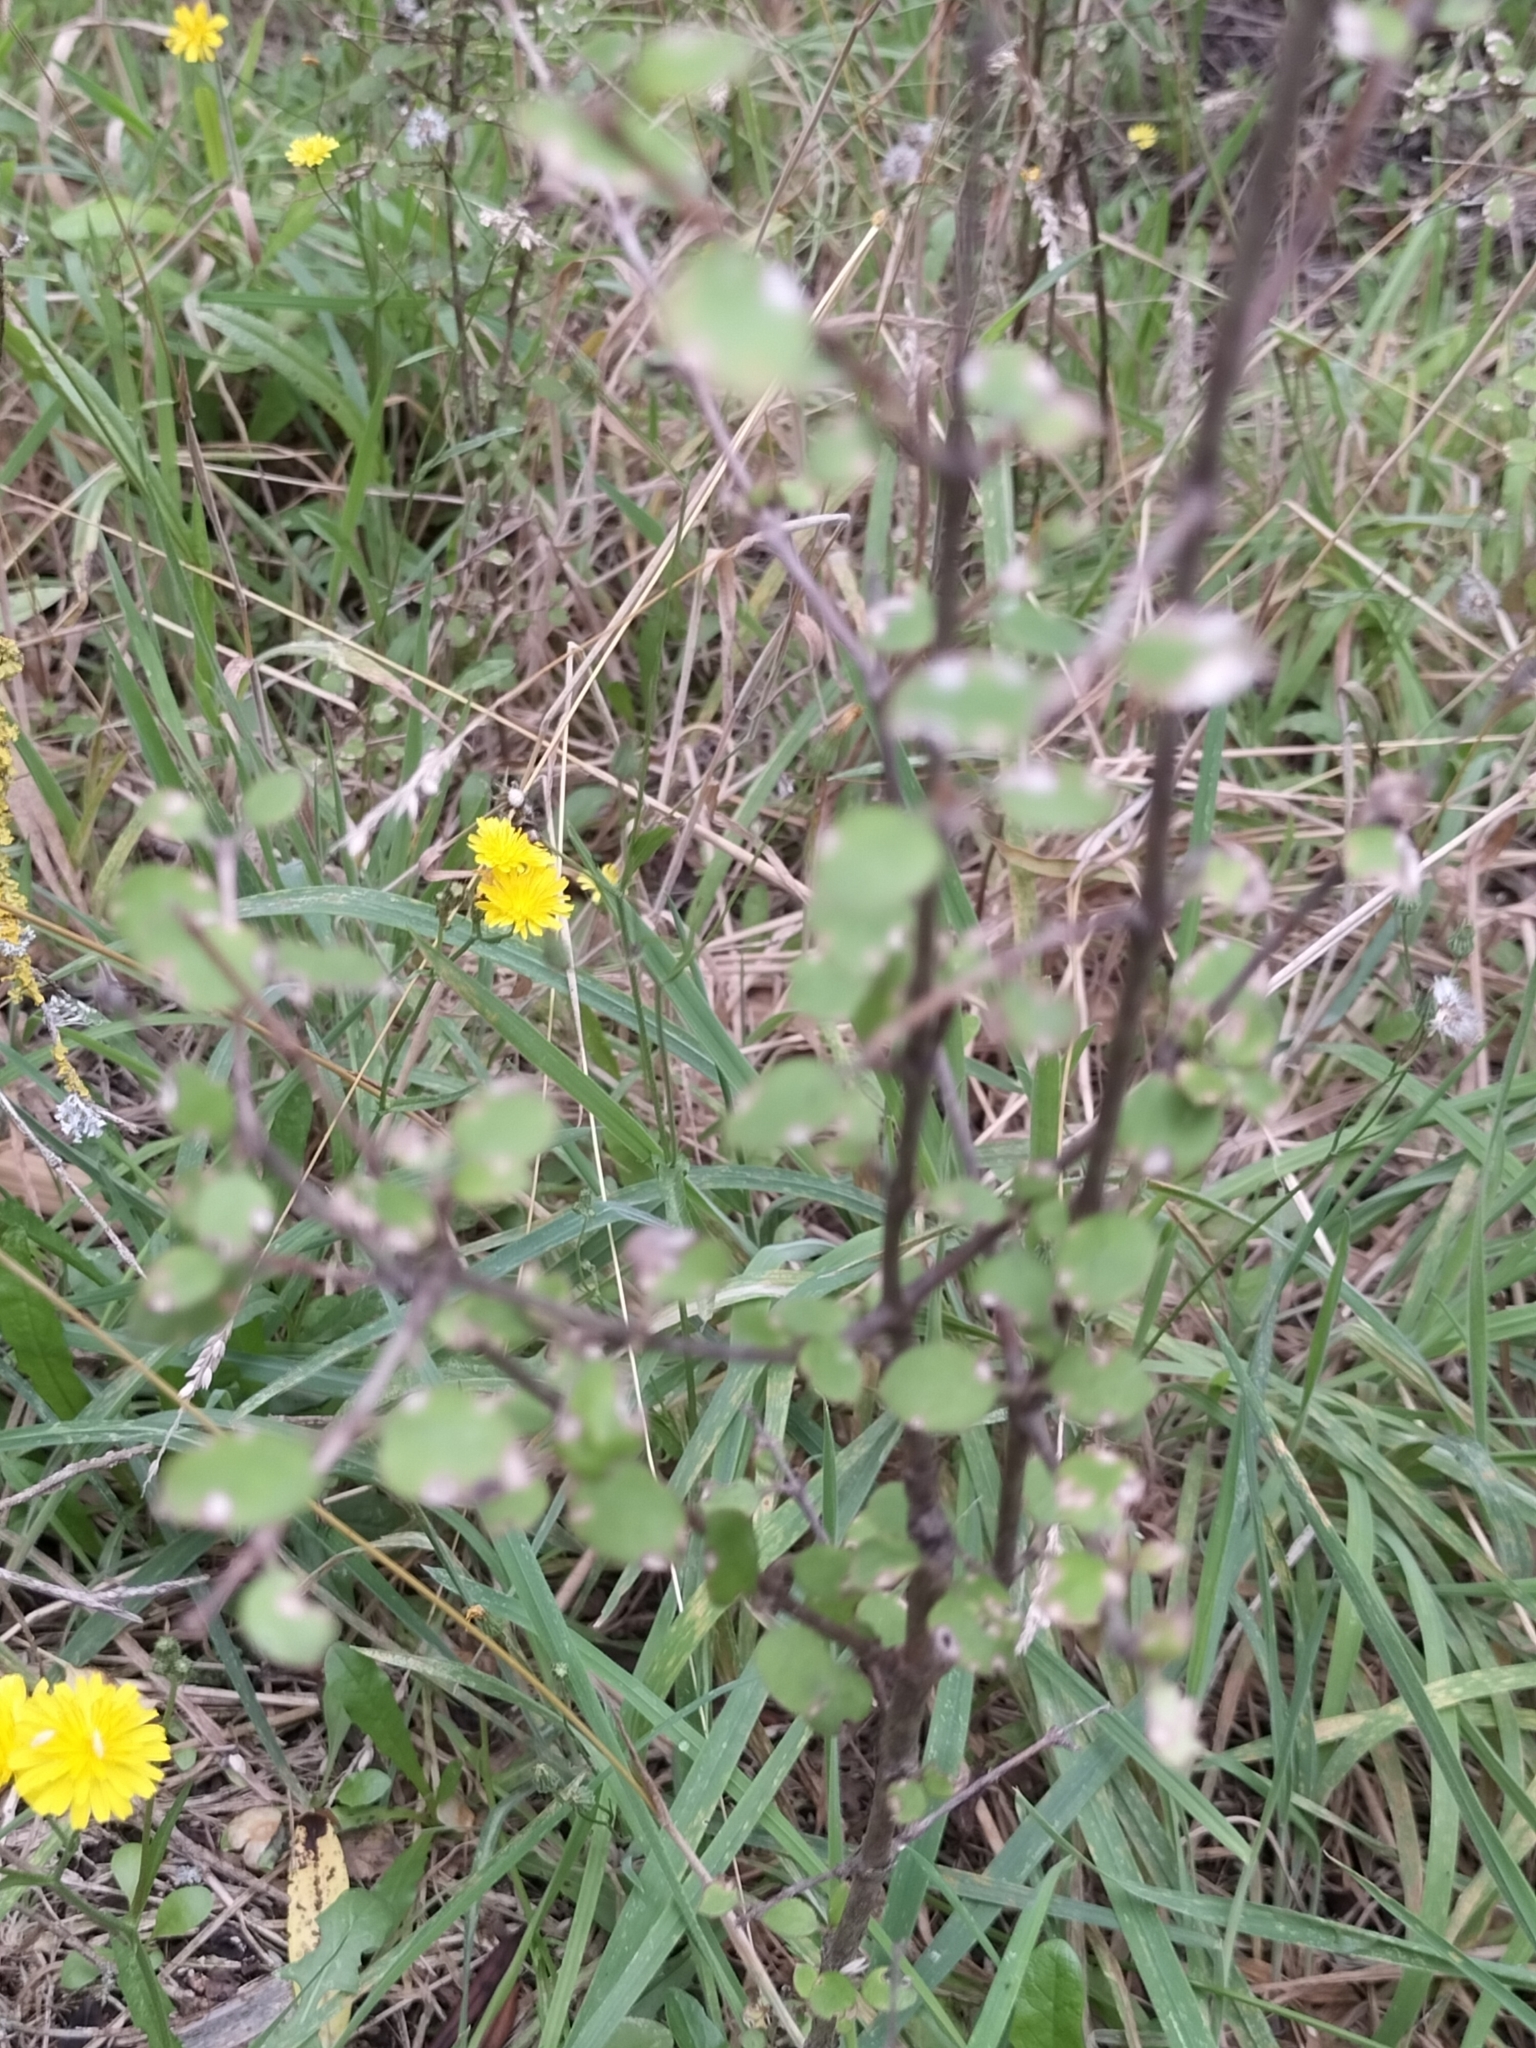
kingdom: Plantae
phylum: Tracheophyta
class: Magnoliopsida
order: Gentianales
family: Rubiaceae
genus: Coprosma
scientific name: Coprosma crassifolia
